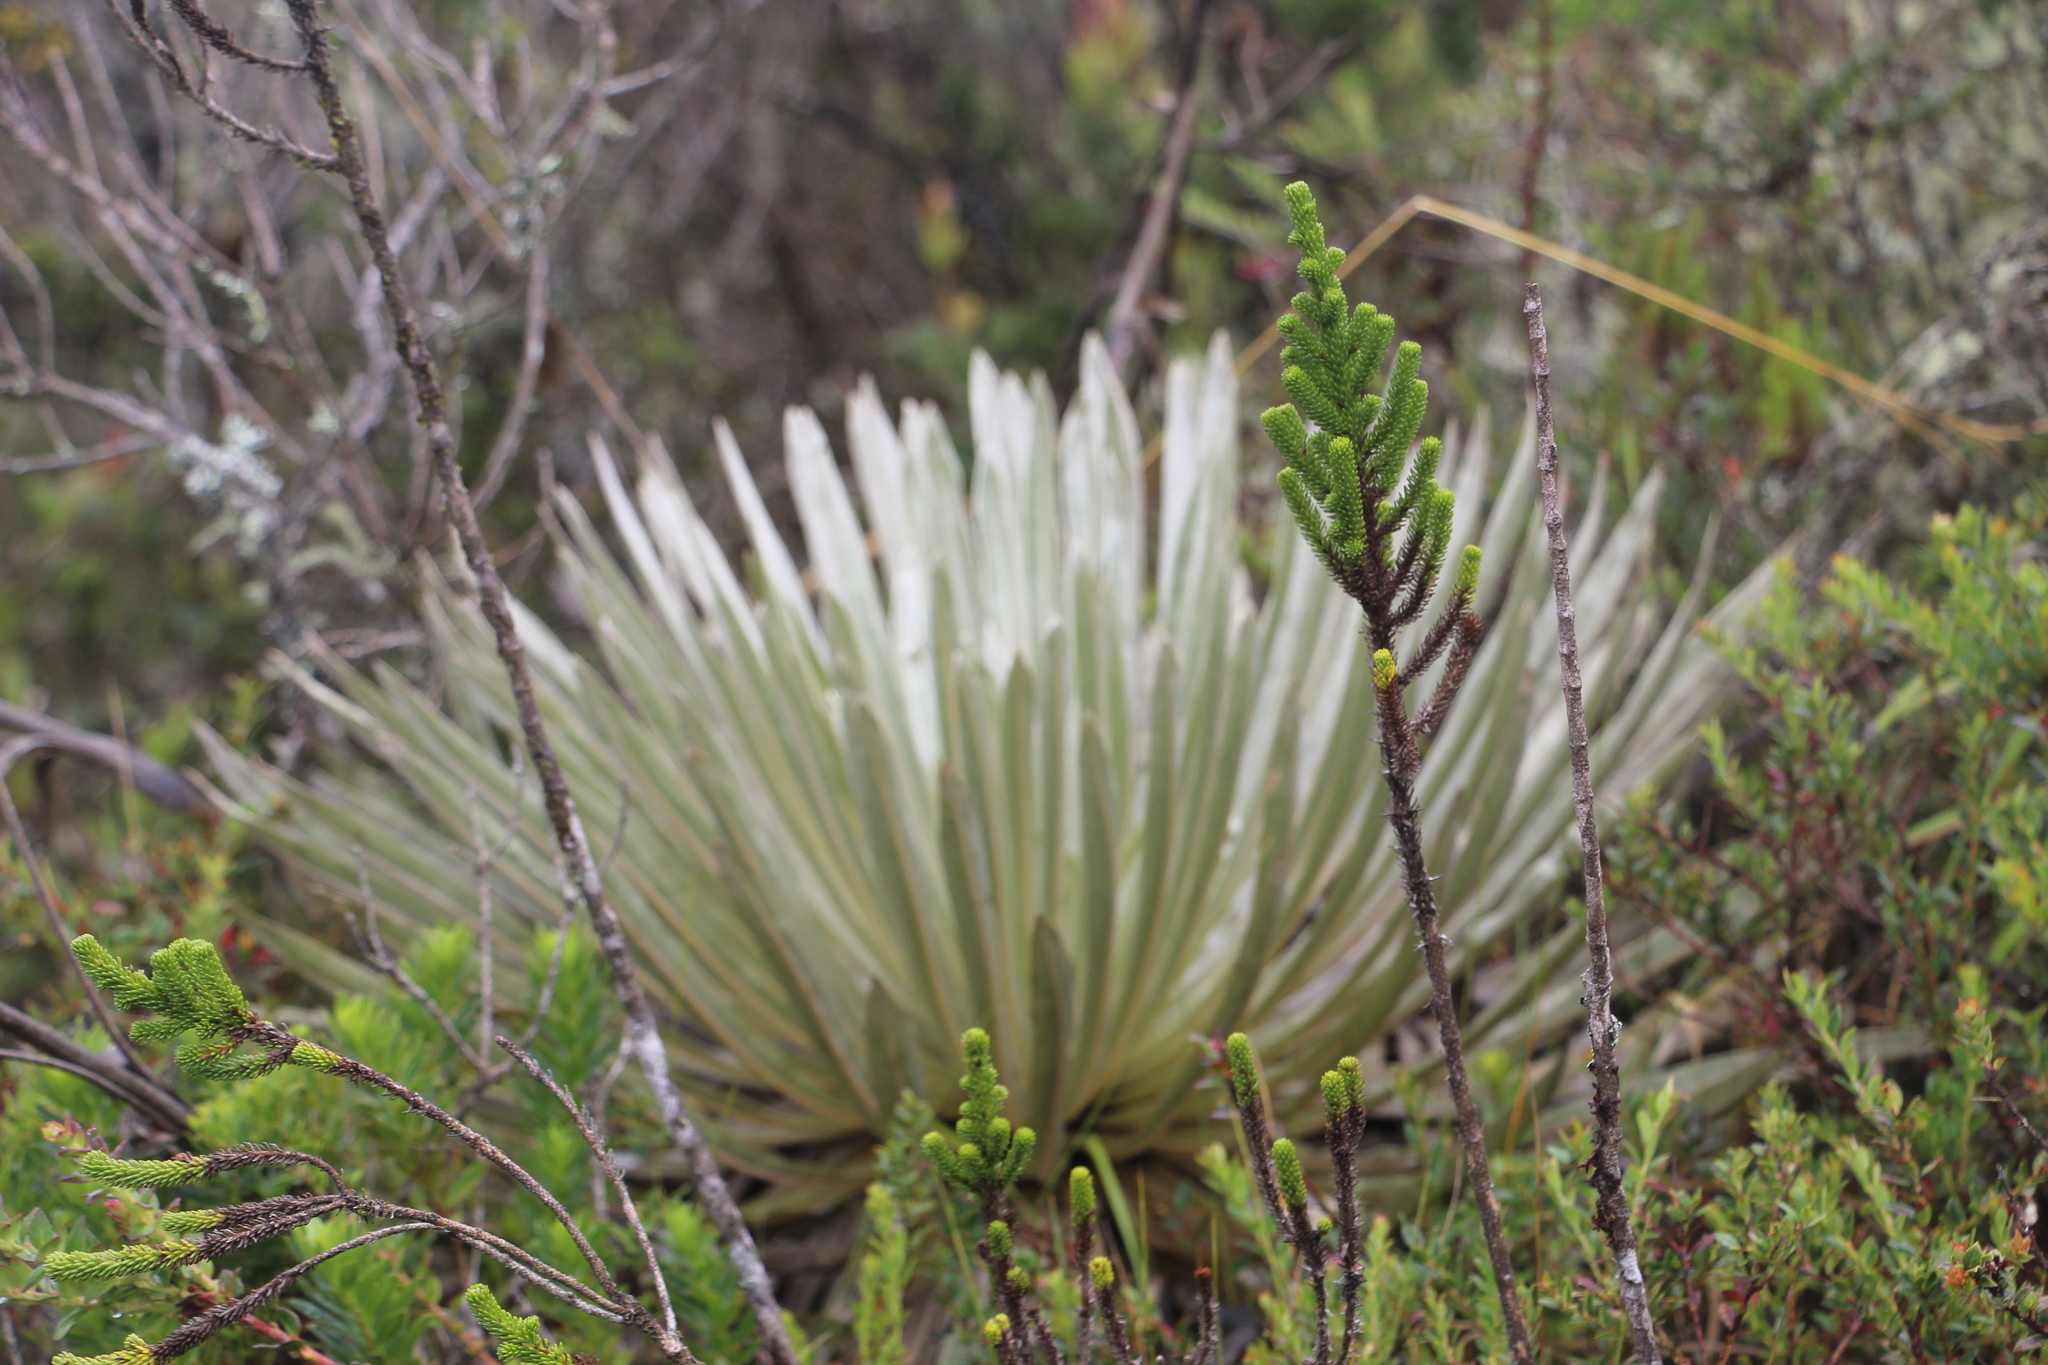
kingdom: Plantae
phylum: Tracheophyta
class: Magnoliopsida
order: Asterales
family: Asteraceae
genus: Espeletia
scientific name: Espeletia argentea
